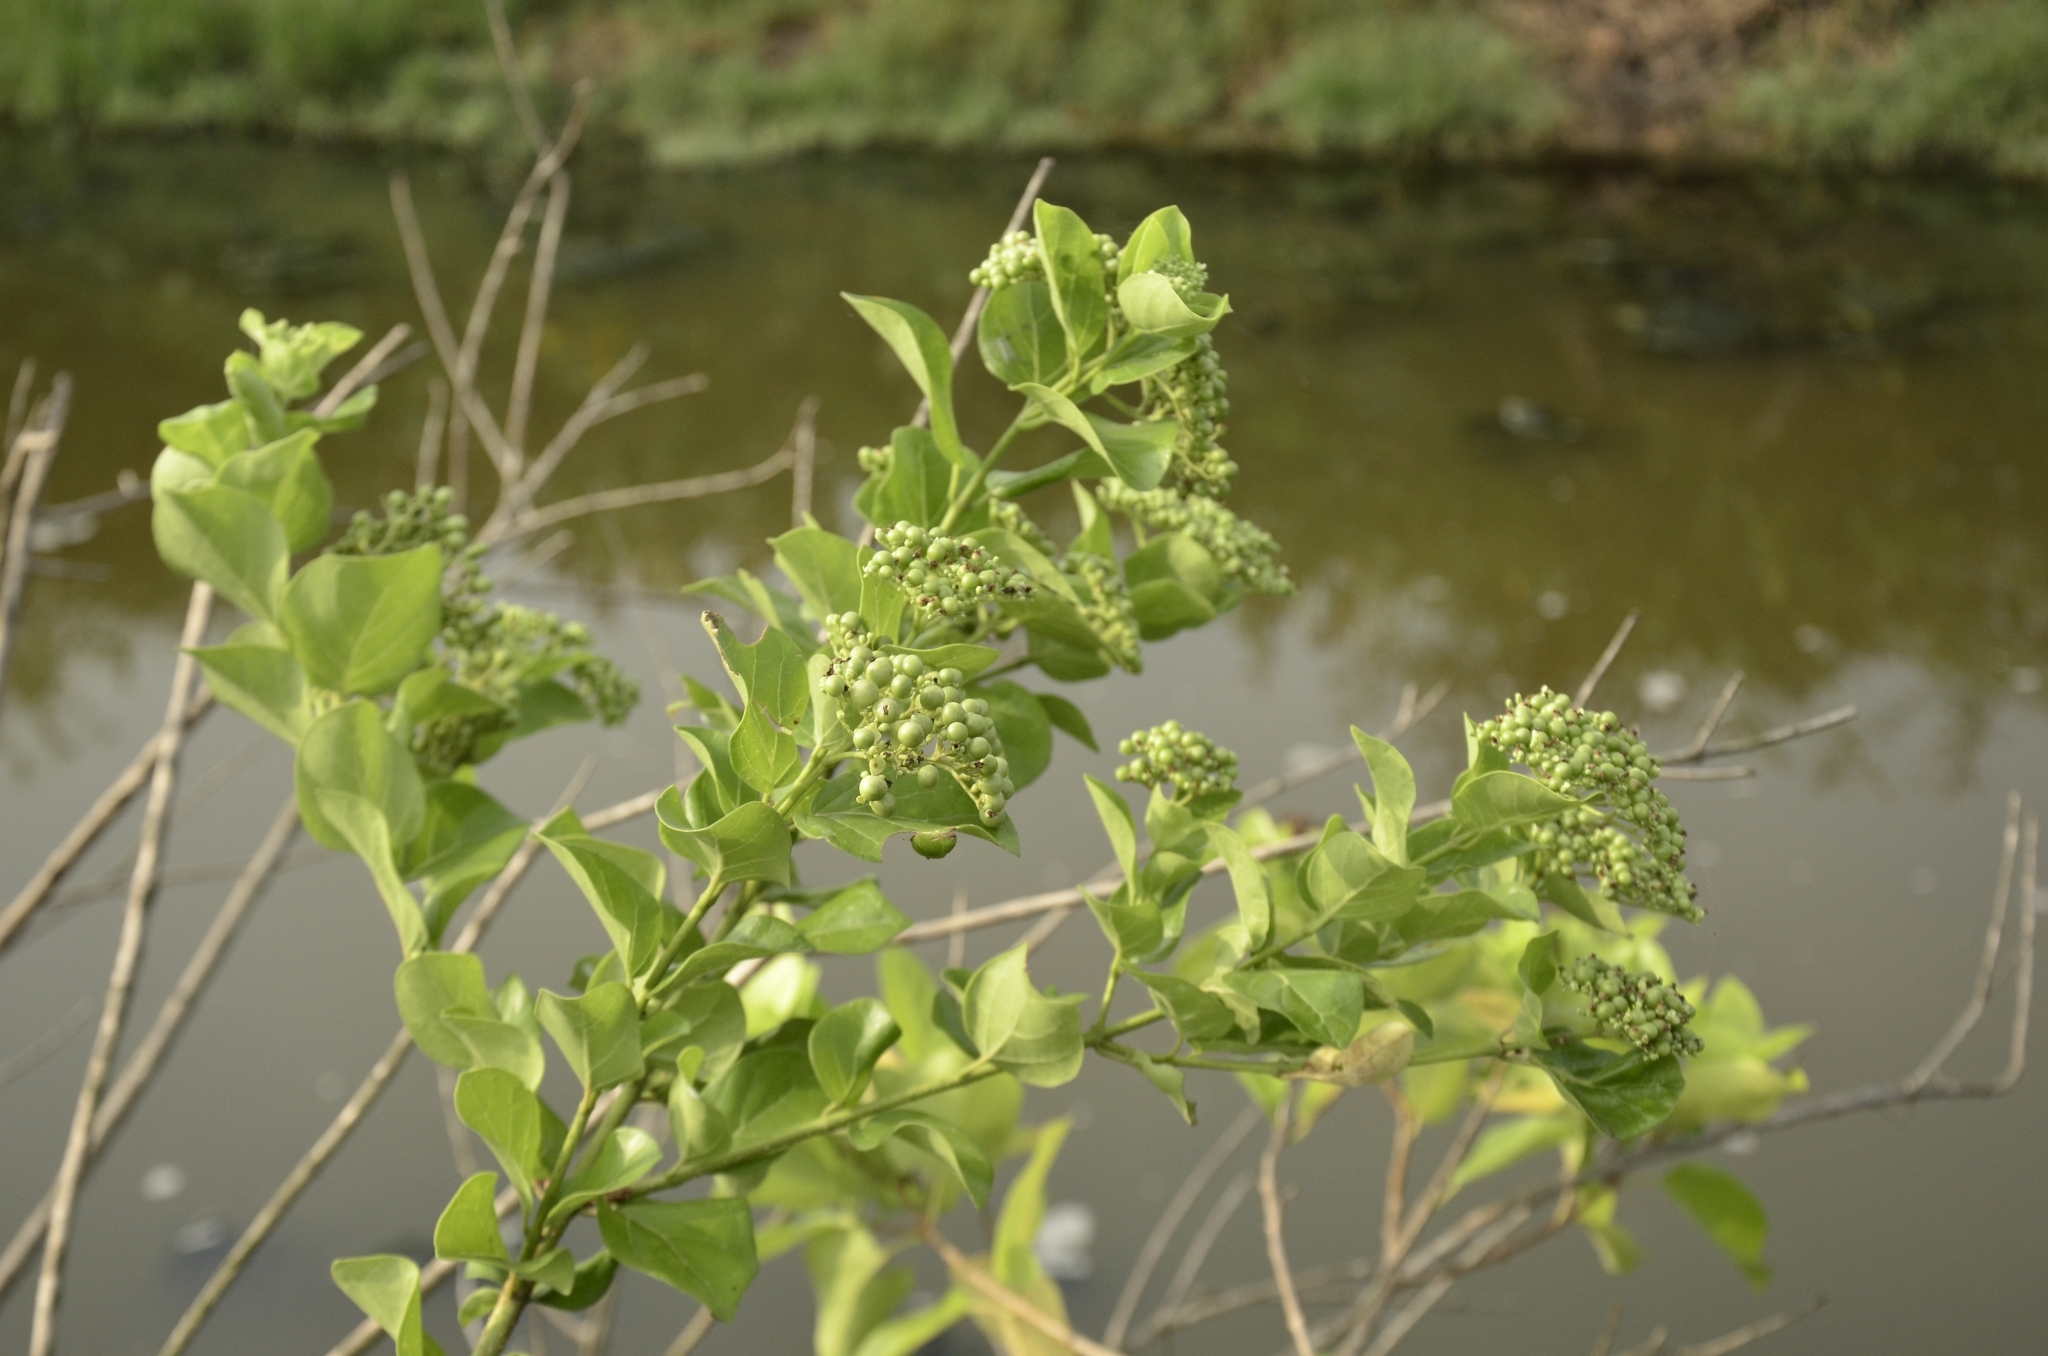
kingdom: Plantae
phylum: Tracheophyta
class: Magnoliopsida
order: Lamiales
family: Lamiaceae
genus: Premna
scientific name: Premna serratifolia
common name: Bastard guelder
